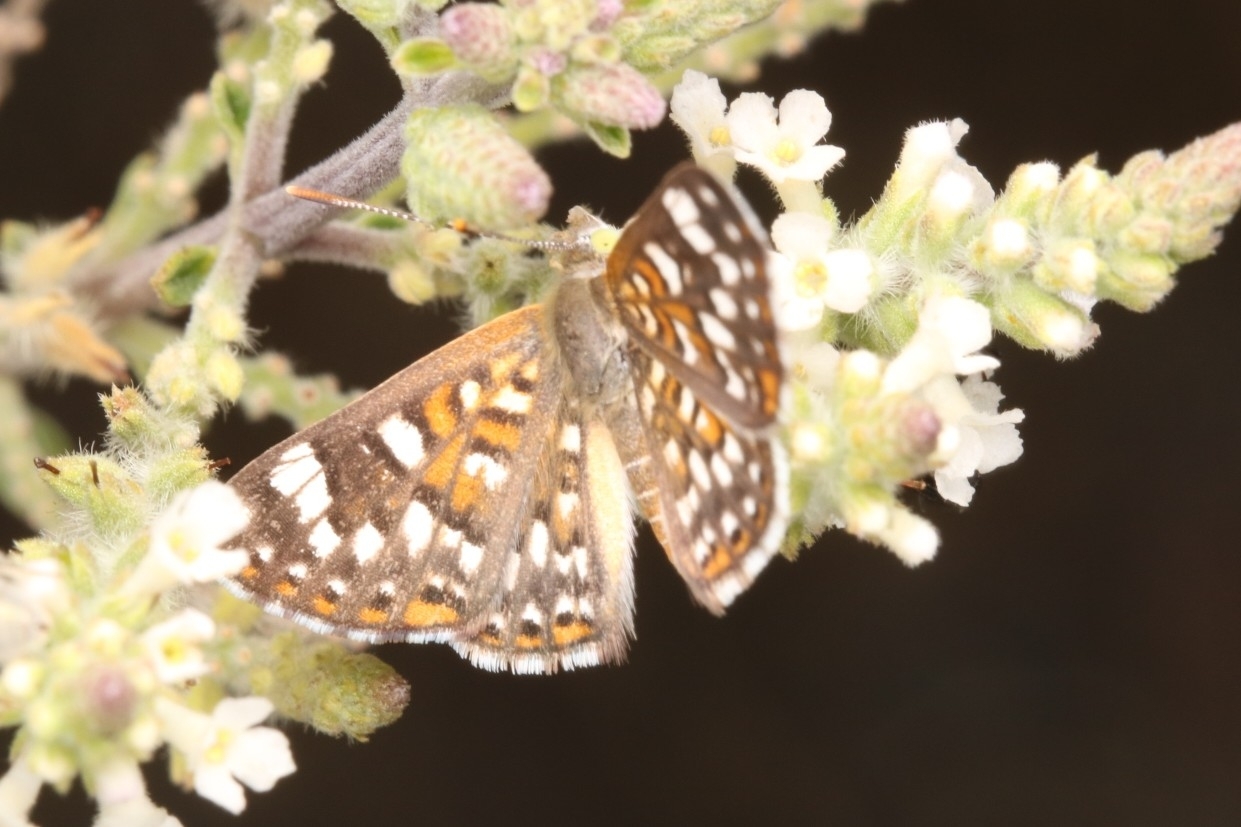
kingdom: Animalia
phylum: Arthropoda
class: Insecta
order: Lepidoptera
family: Riodinidae
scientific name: Riodinidae
